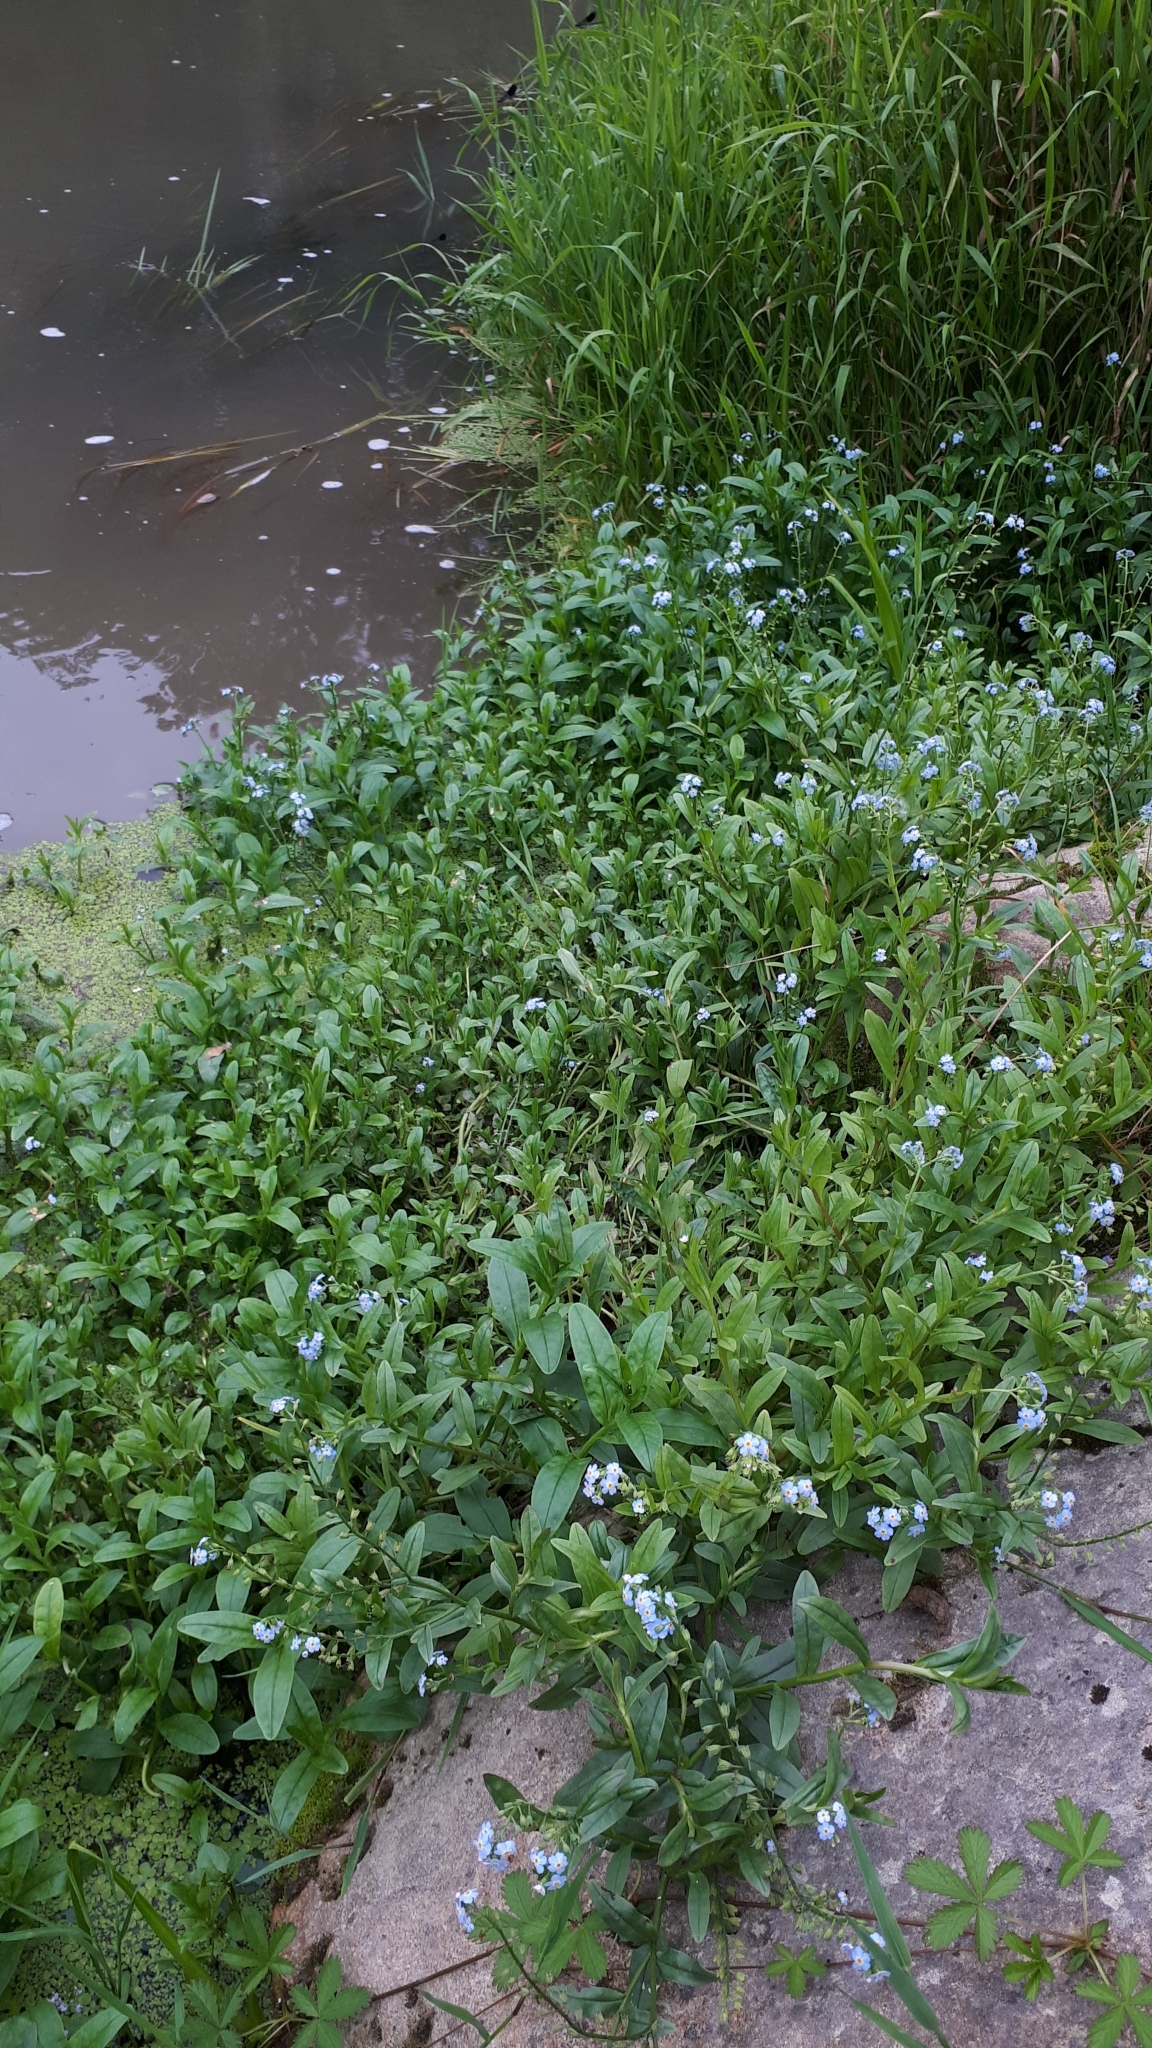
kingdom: Plantae
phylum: Tracheophyta
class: Magnoliopsida
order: Boraginales
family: Boraginaceae
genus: Myosotis
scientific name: Myosotis scorpioides
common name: Water forget-me-not
